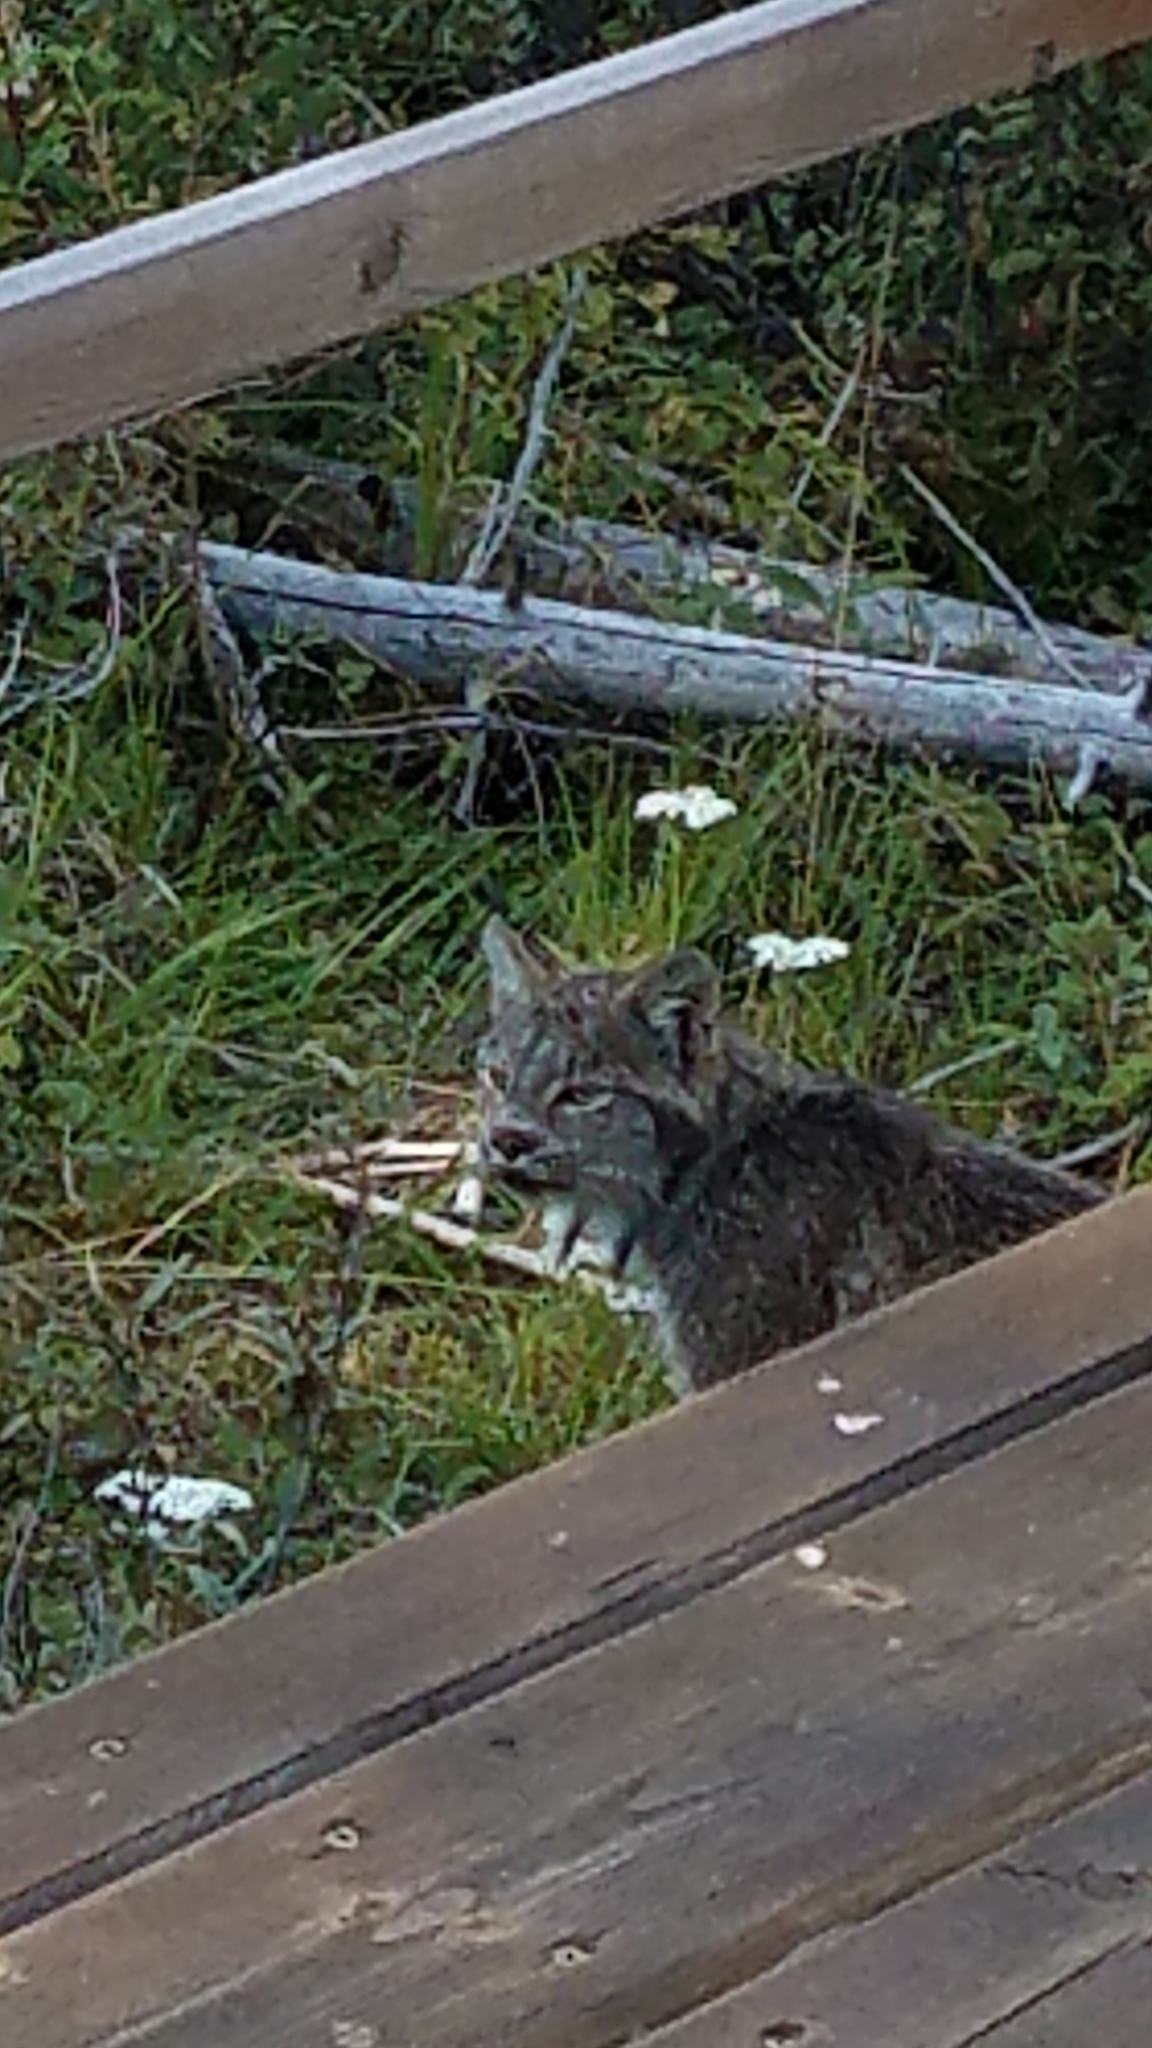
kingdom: Animalia
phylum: Chordata
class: Mammalia
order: Carnivora
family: Felidae
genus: Lynx
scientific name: Lynx canadensis
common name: Canadian lynx
